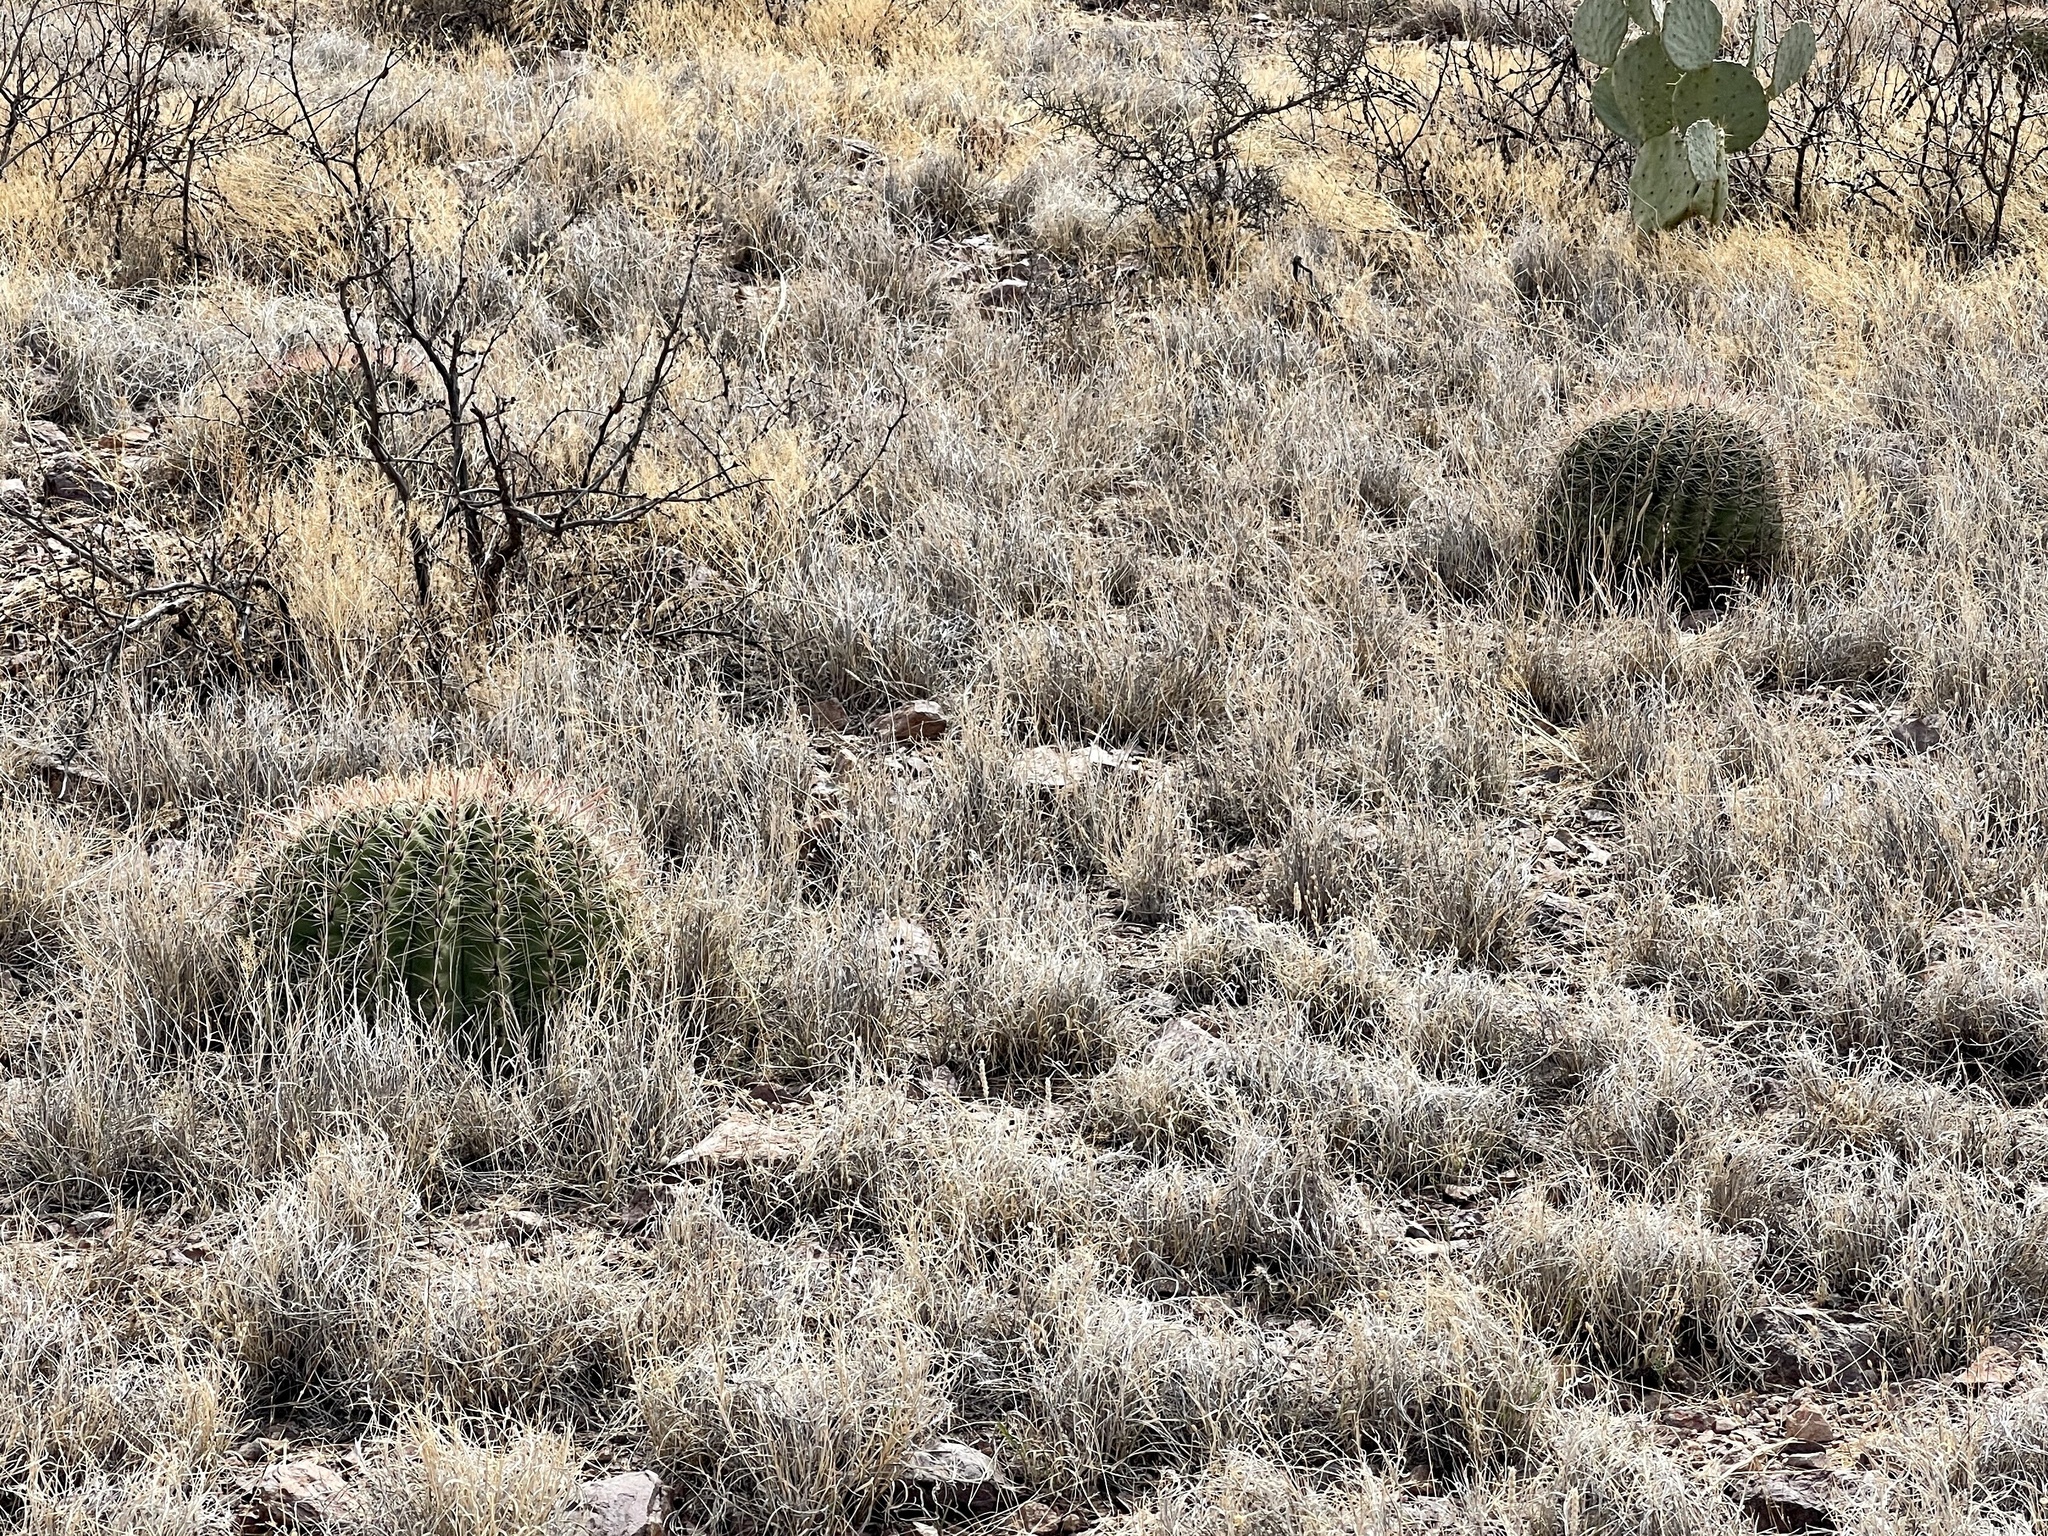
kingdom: Plantae
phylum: Tracheophyta
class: Magnoliopsida
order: Caryophyllales
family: Cactaceae
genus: Ferocactus
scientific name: Ferocactus wislizeni
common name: Candy barrel cactus
